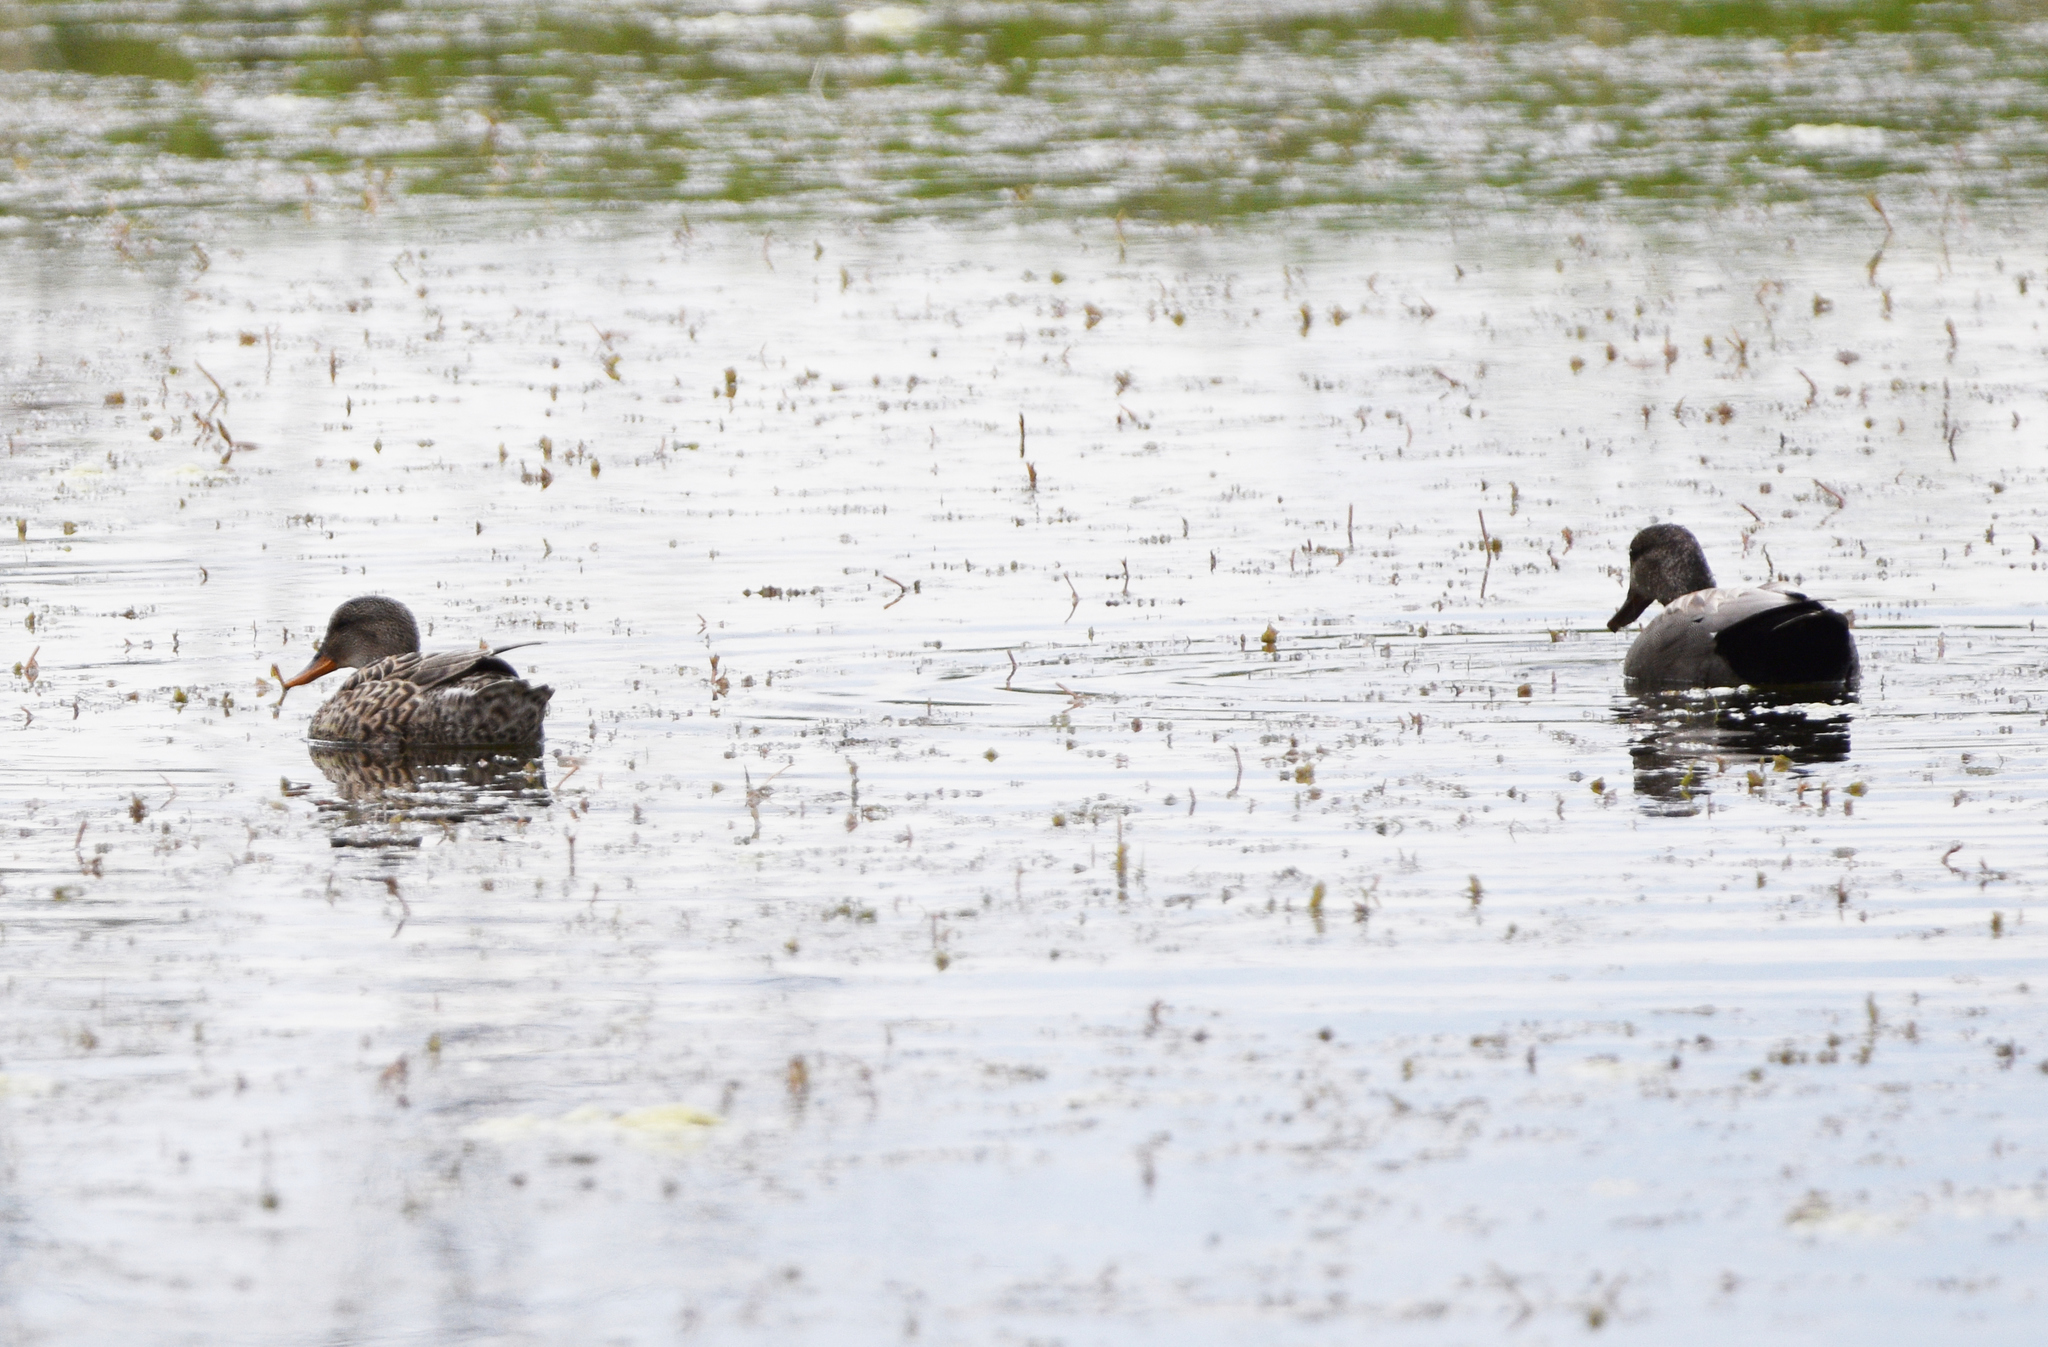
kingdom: Animalia
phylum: Chordata
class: Aves
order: Anseriformes
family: Anatidae
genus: Mareca
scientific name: Mareca strepera
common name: Gadwall
